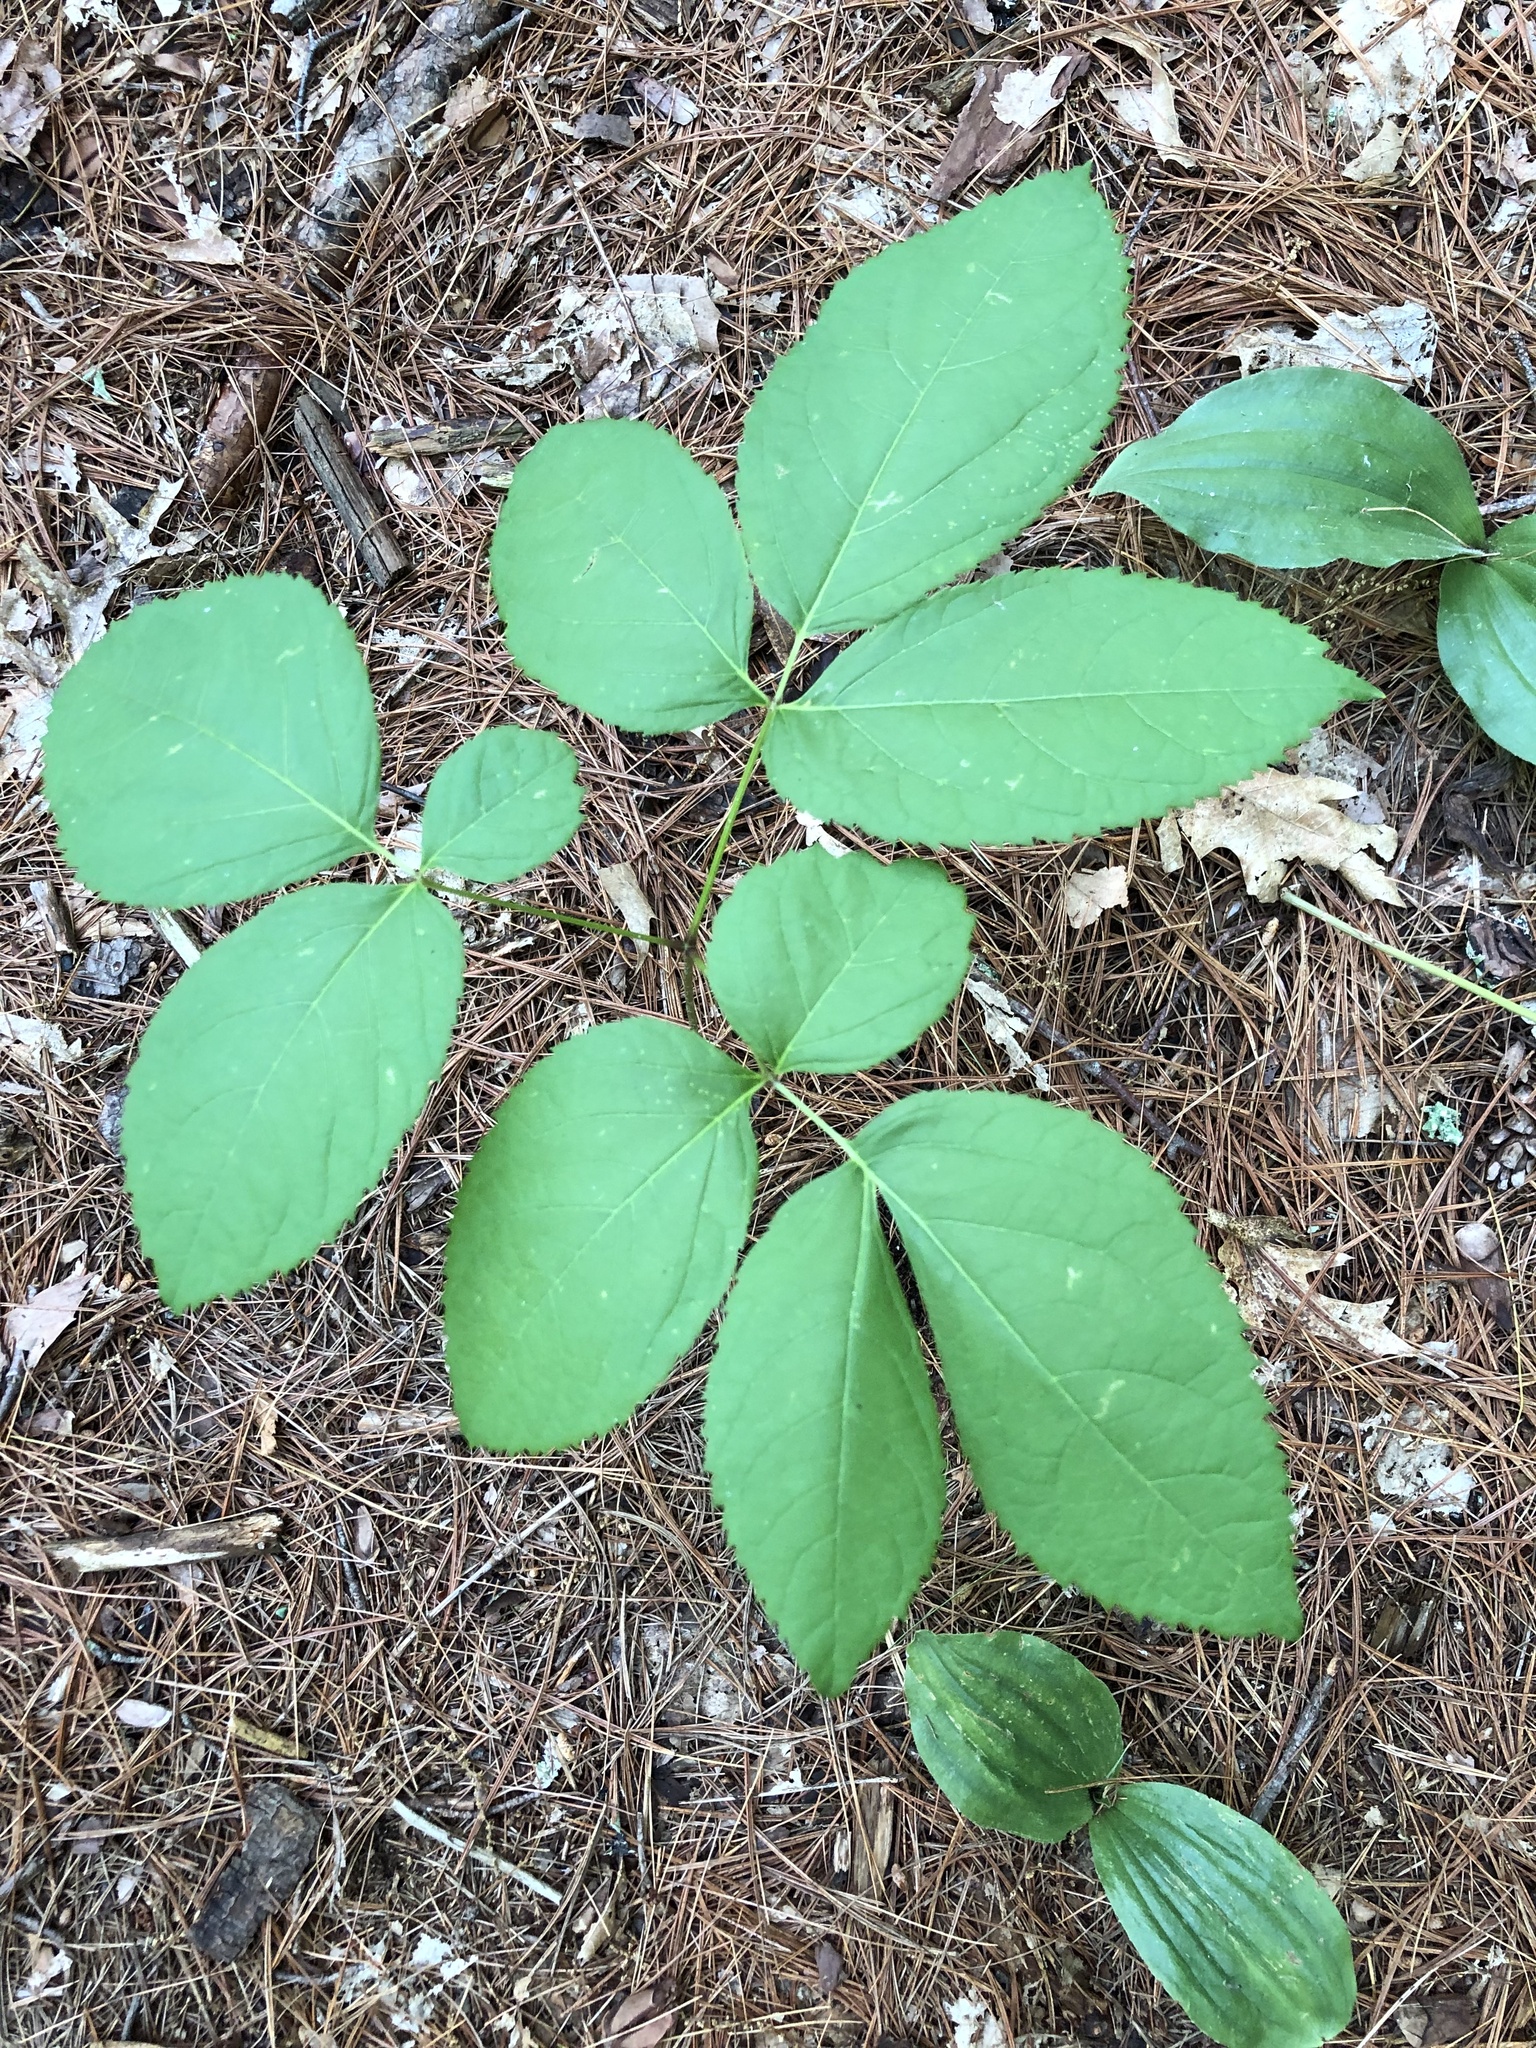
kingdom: Plantae
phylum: Tracheophyta
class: Magnoliopsida
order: Apiales
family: Araliaceae
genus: Aralia
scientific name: Aralia nudicaulis
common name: Wild sarsaparilla
